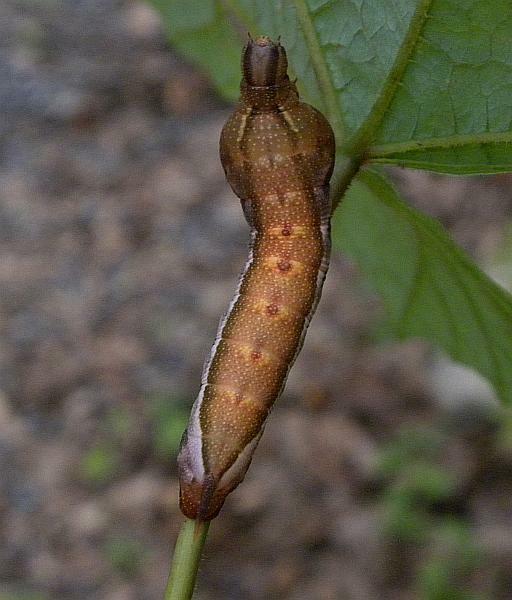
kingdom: Animalia
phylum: Arthropoda
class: Insecta
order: Lepidoptera
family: Sphingidae
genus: Darapsa
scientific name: Darapsa myron
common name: Hog sphinx
